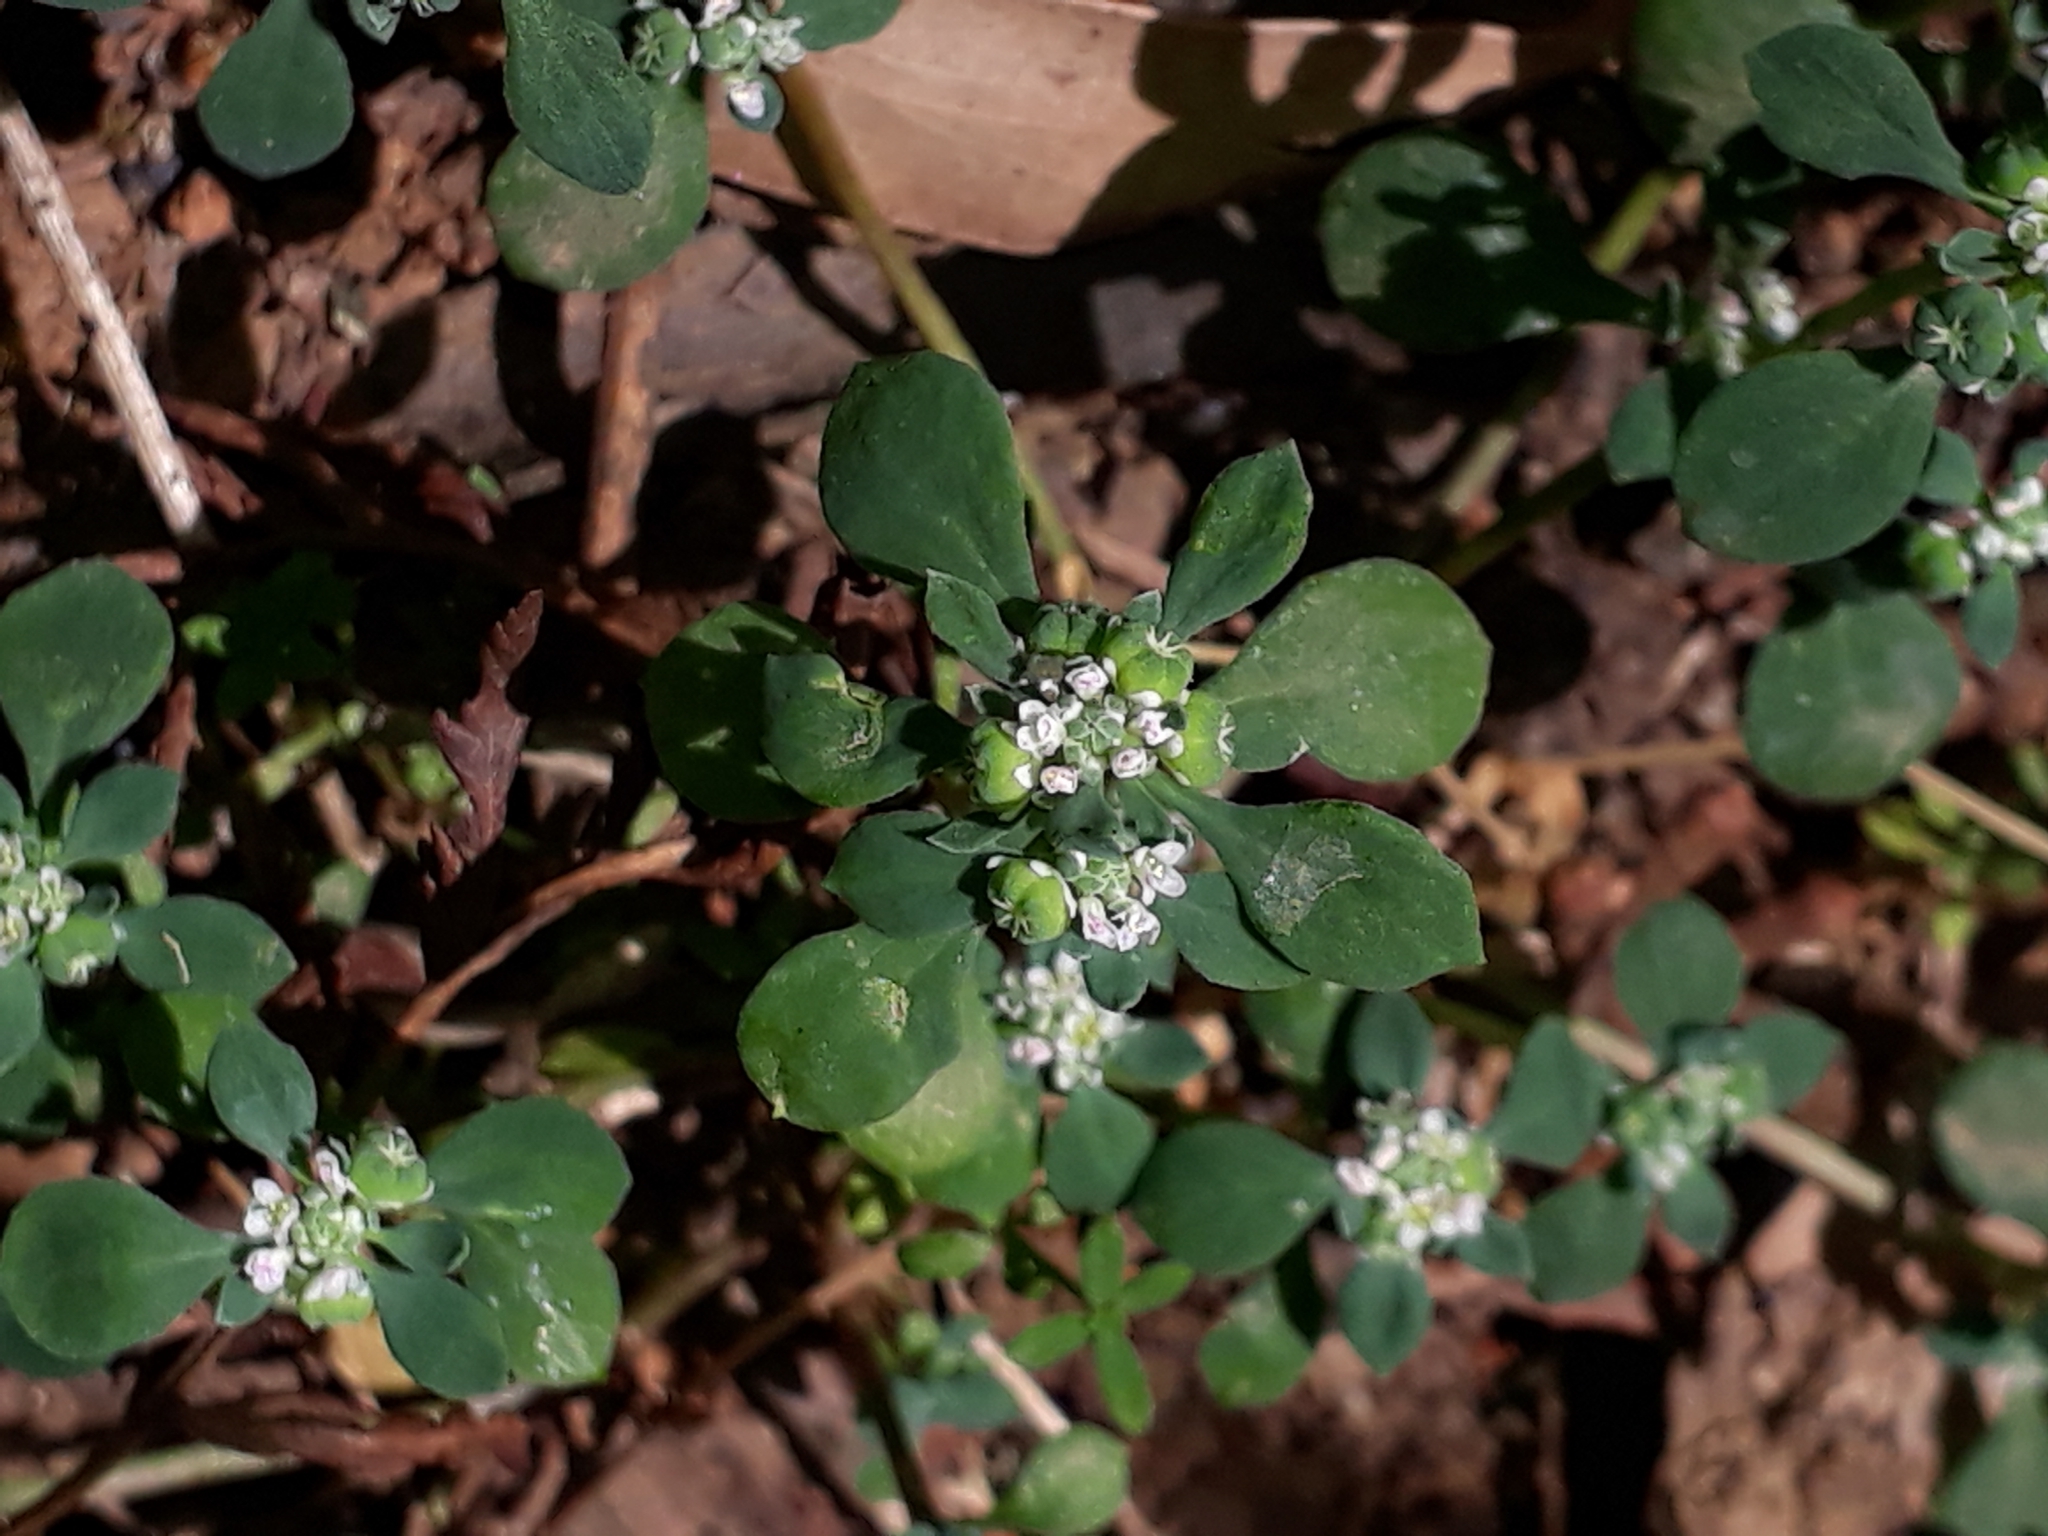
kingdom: Plantae
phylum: Tracheophyta
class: Magnoliopsida
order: Malpighiales
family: Phyllanthaceae
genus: Poranthera
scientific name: Poranthera microphylla
